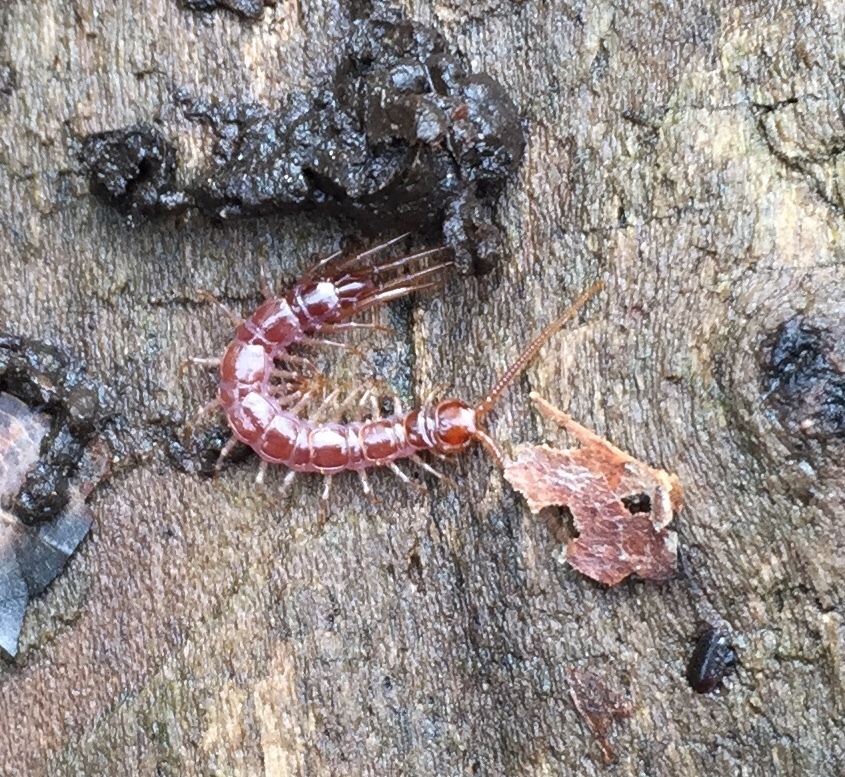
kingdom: Animalia
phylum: Arthropoda
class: Chilopoda
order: Lithobiomorpha
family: Lithobiidae
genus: Lithobius
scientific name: Lithobius forficatus
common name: Centipede
